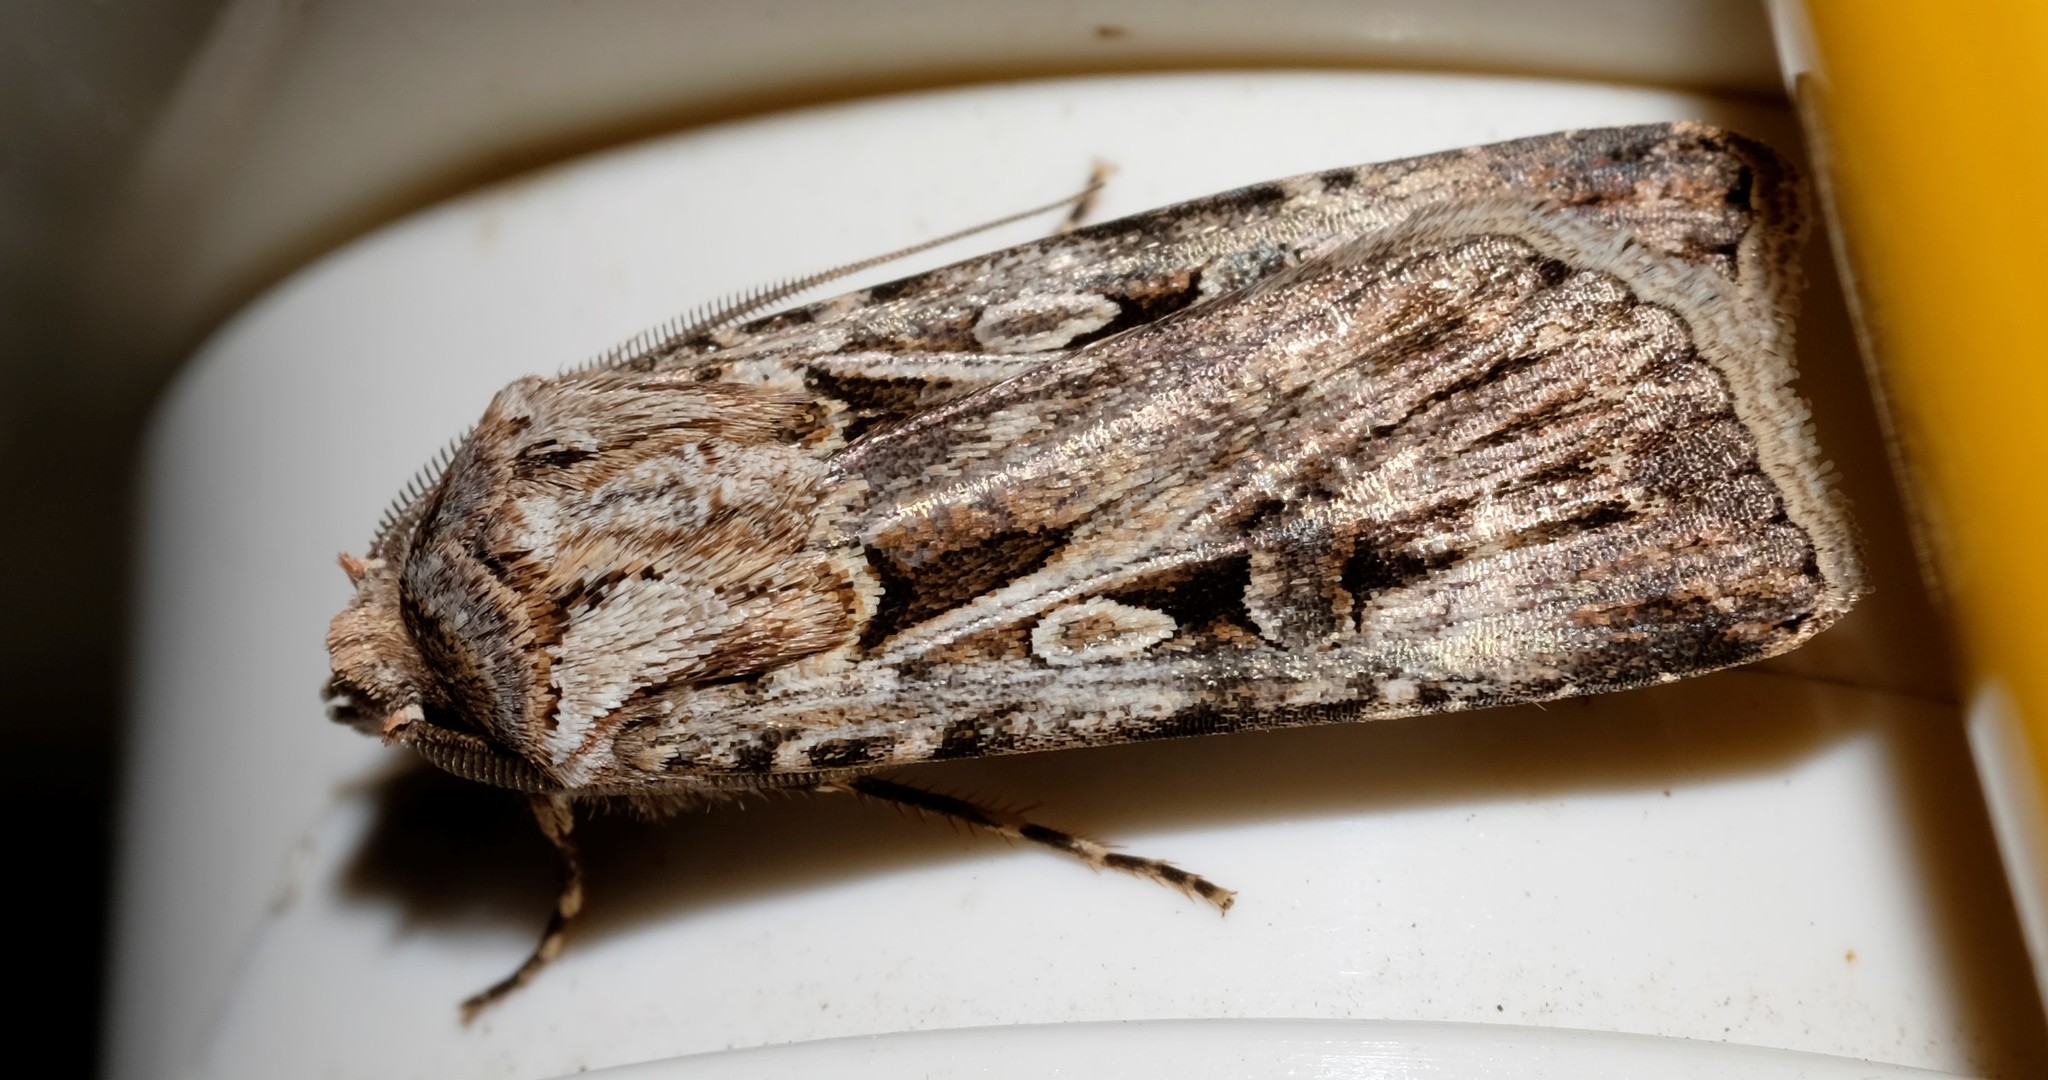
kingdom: Animalia
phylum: Arthropoda
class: Insecta
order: Lepidoptera
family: Noctuidae
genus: Agrotis
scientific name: Agrotis munda
